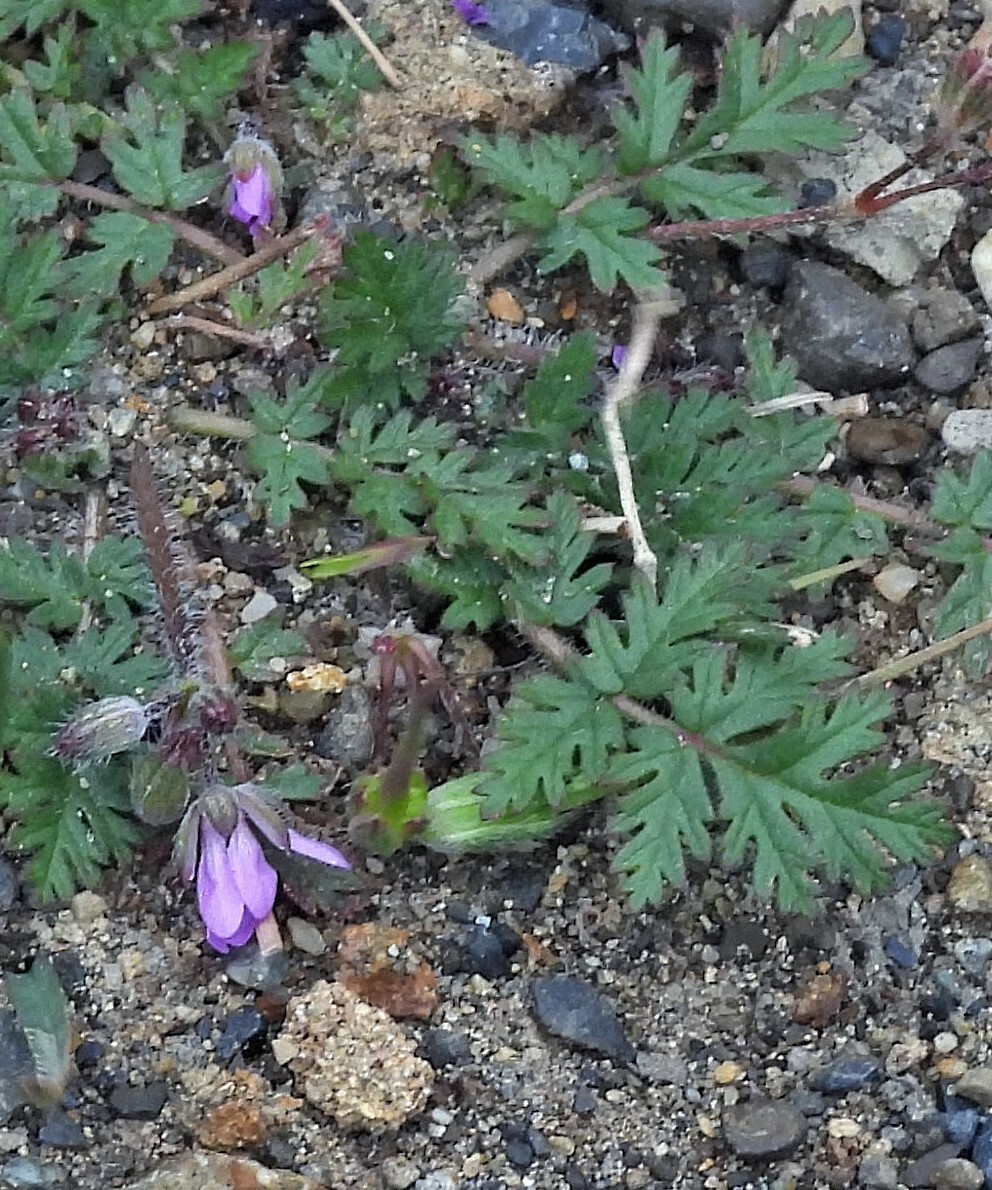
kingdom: Plantae
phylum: Tracheophyta
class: Magnoliopsida
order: Geraniales
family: Geraniaceae
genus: Erodium
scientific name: Erodium cicutarium
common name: Common stork's-bill
